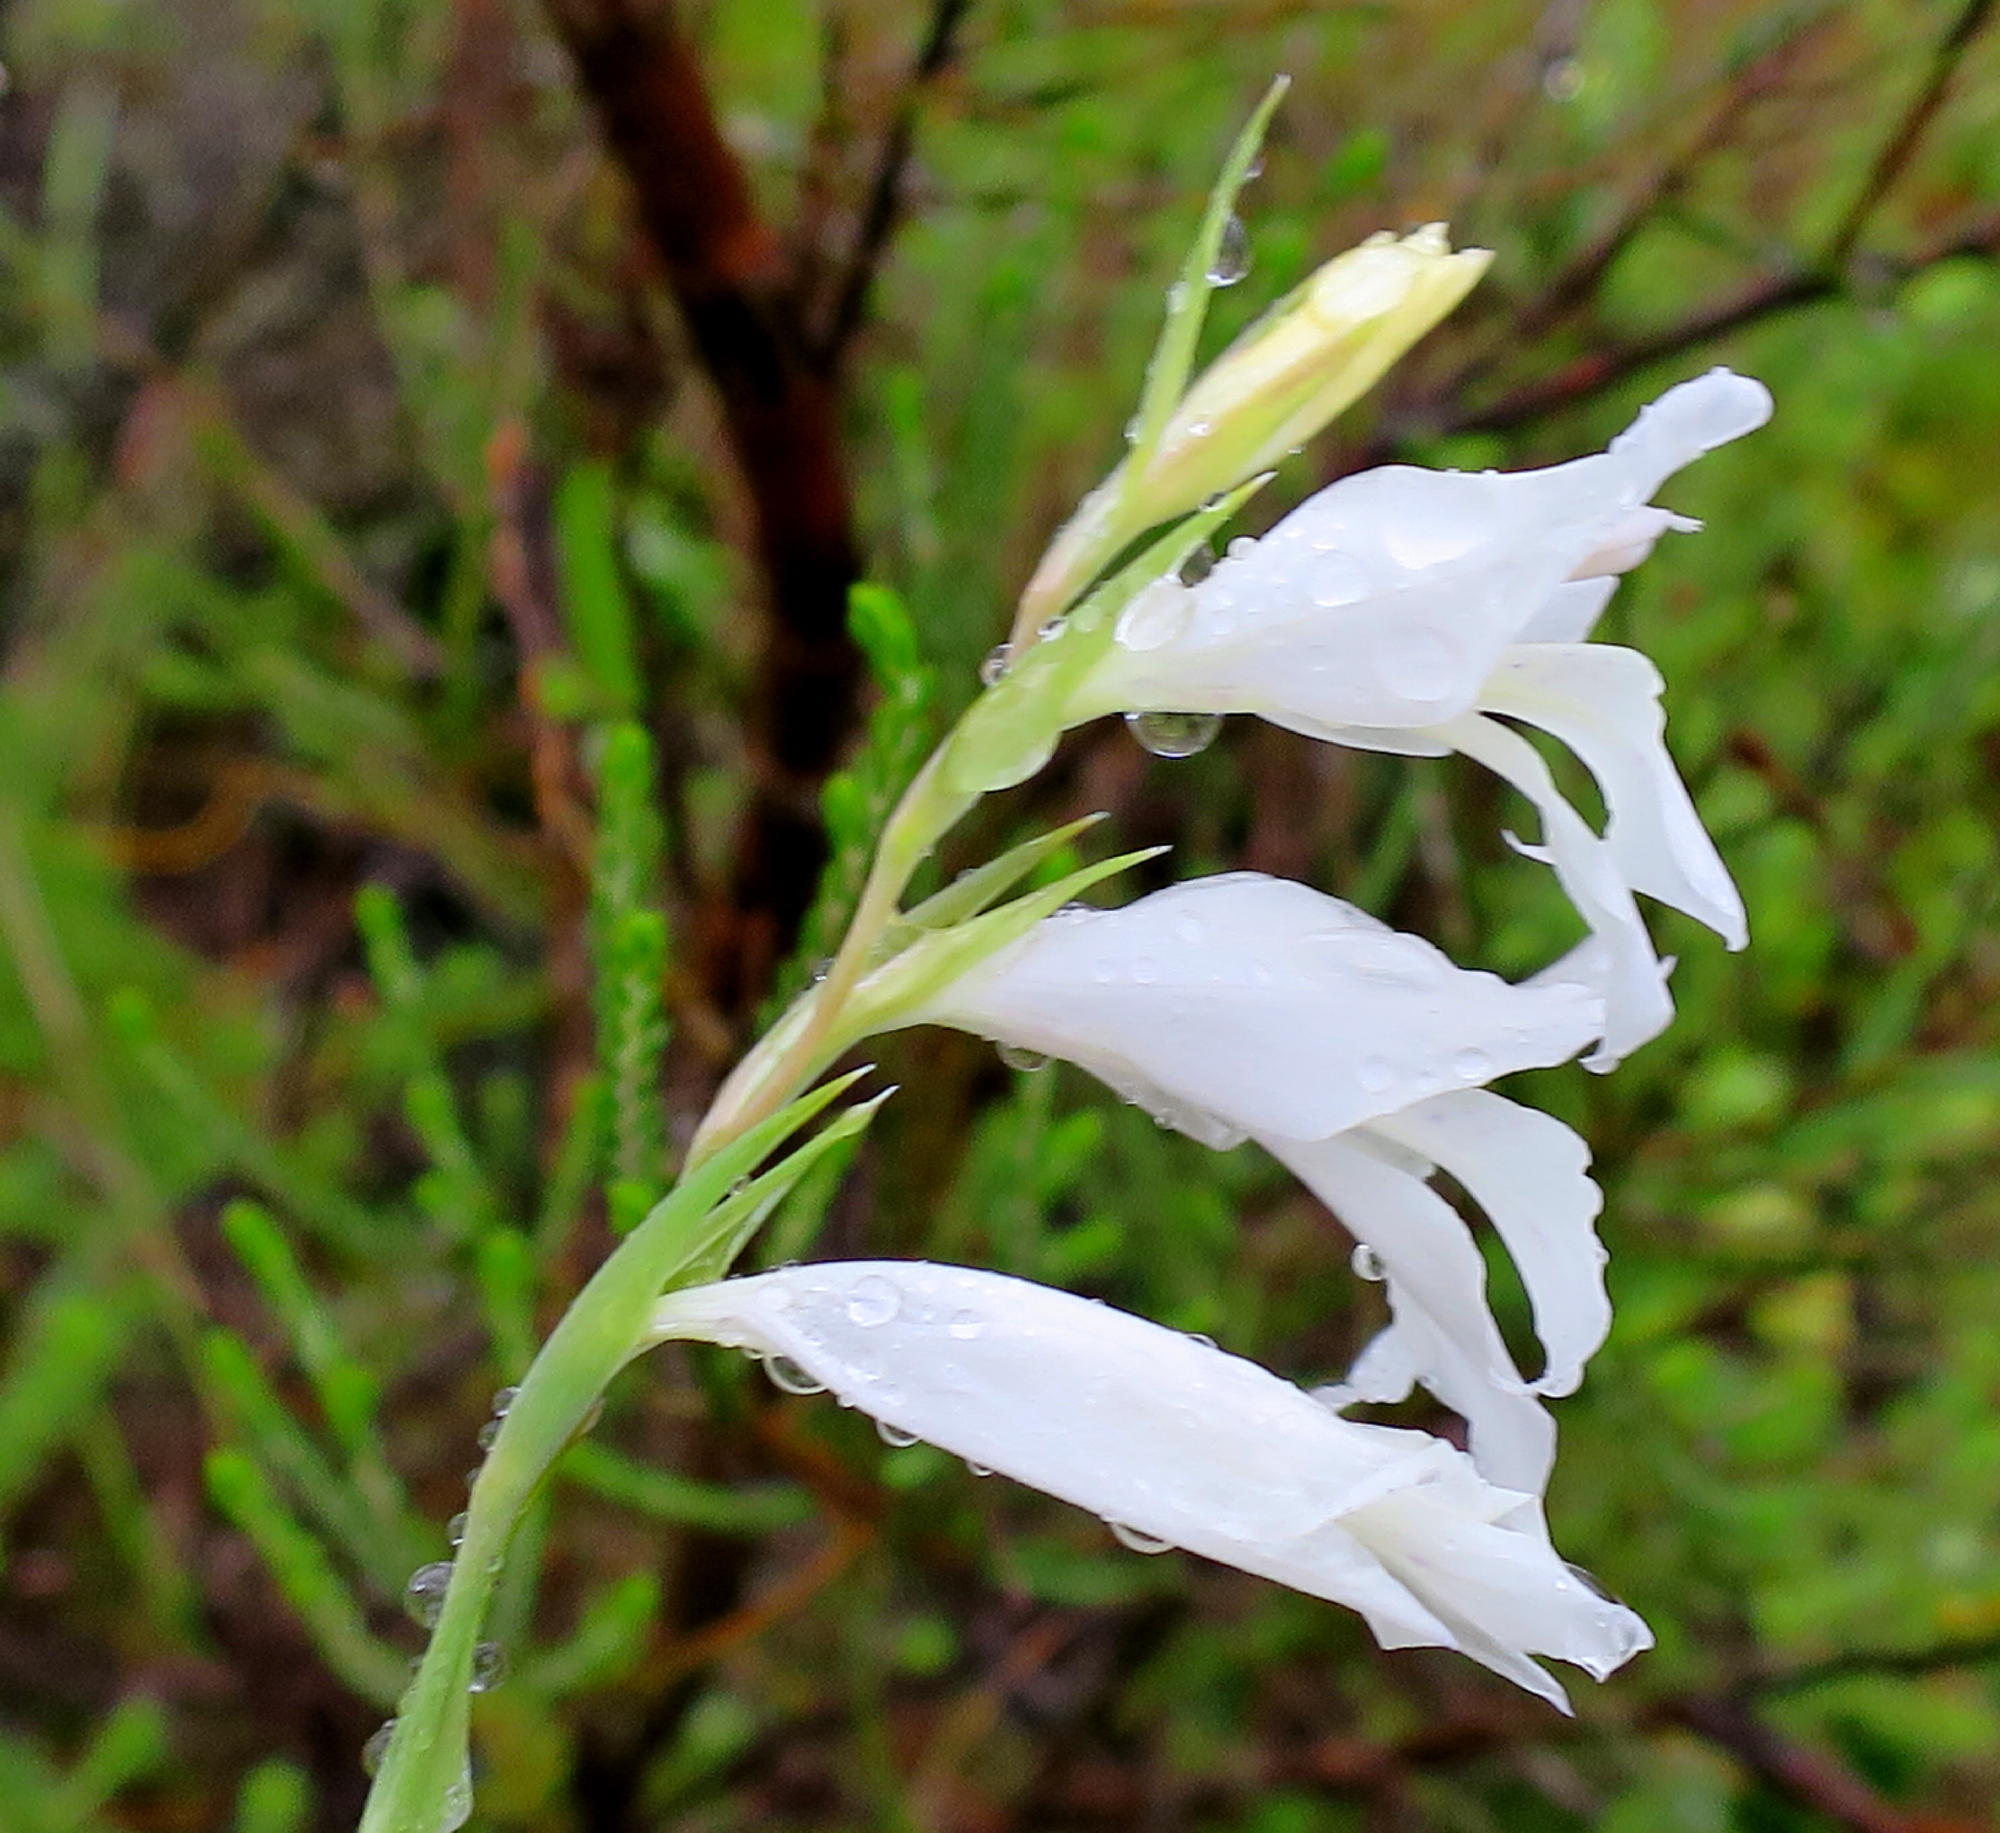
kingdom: Plantae
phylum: Tracheophyta
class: Liliopsida
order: Asparagales
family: Iridaceae
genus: Gladiolus
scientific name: Gladiolus vaginatus
